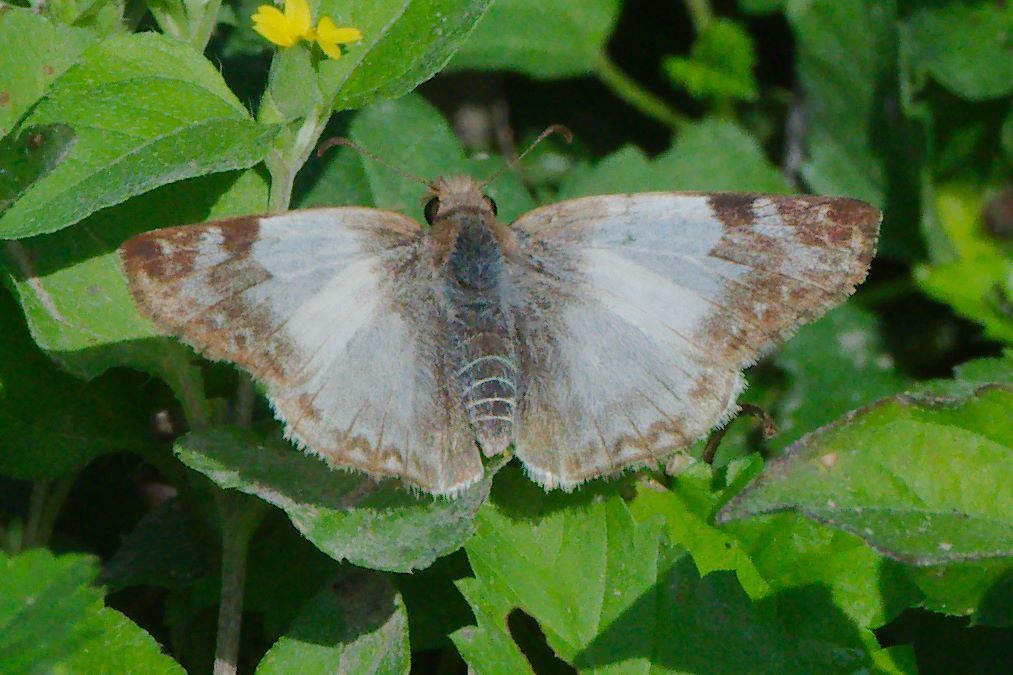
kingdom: Animalia
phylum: Arthropoda
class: Insecta
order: Lepidoptera
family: Hesperiidae
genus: Heliopetes
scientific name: Heliopetes laviana
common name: Laviana white-skipper
